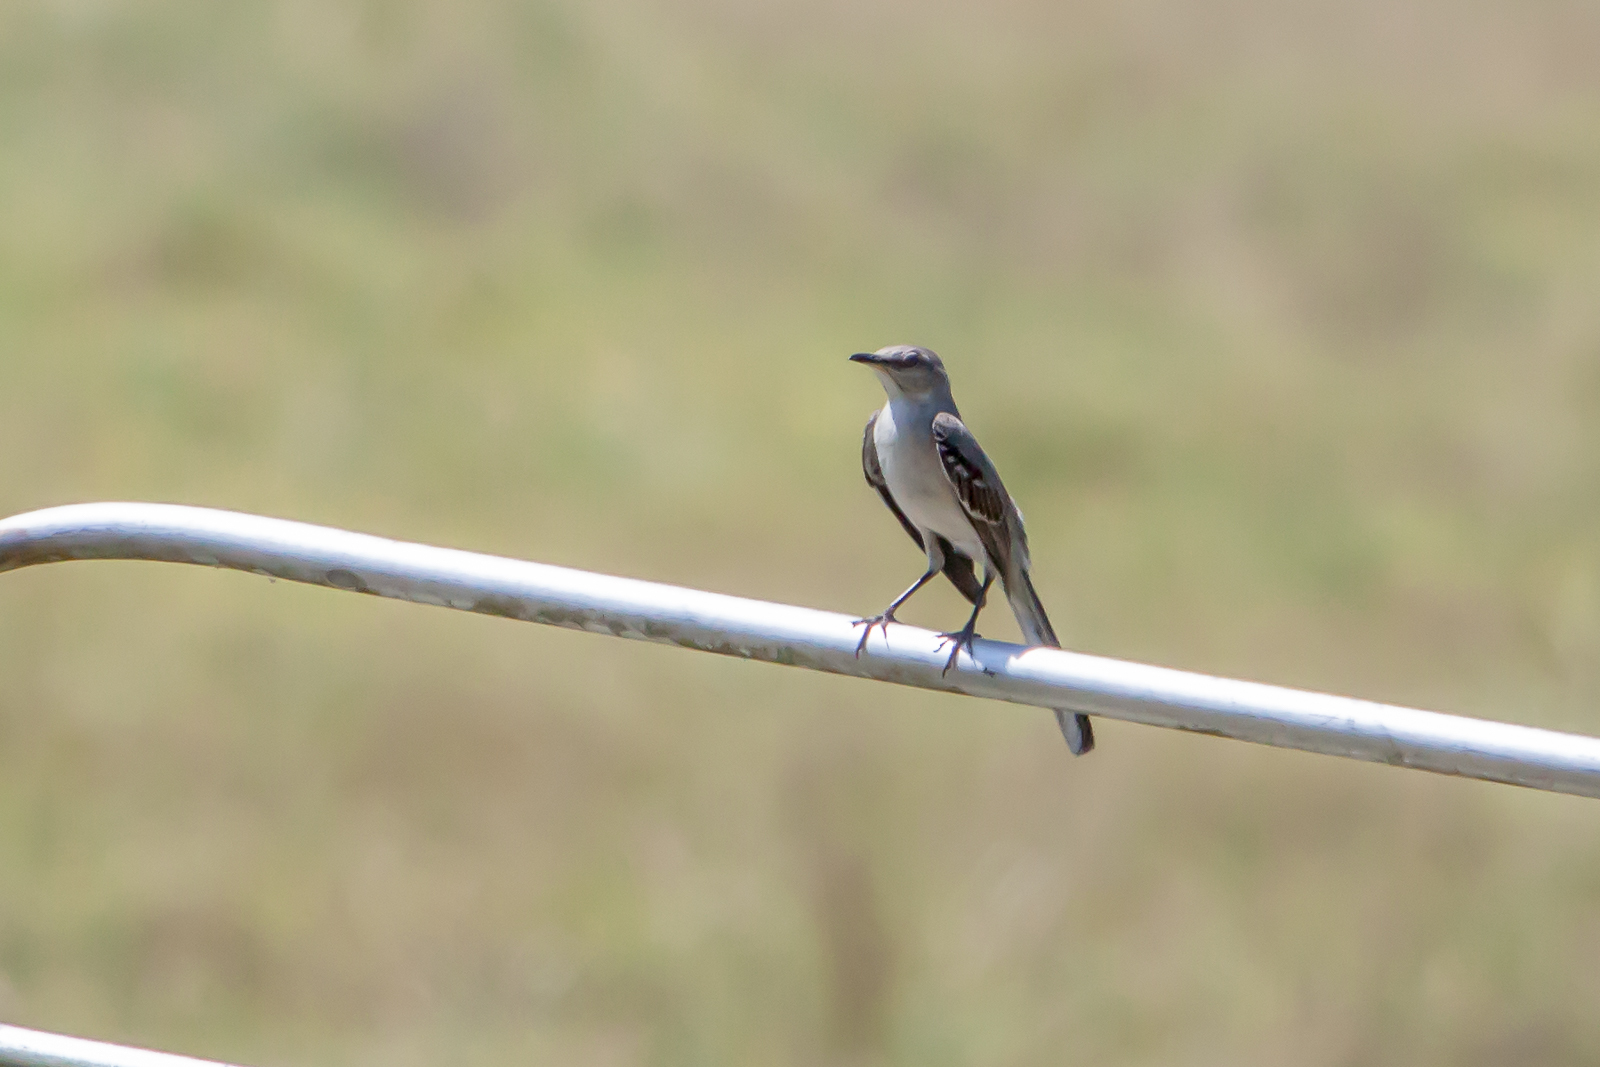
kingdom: Animalia
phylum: Chordata
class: Aves
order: Passeriformes
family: Mimidae
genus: Mimus
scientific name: Mimus polyglottos
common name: Northern mockingbird
